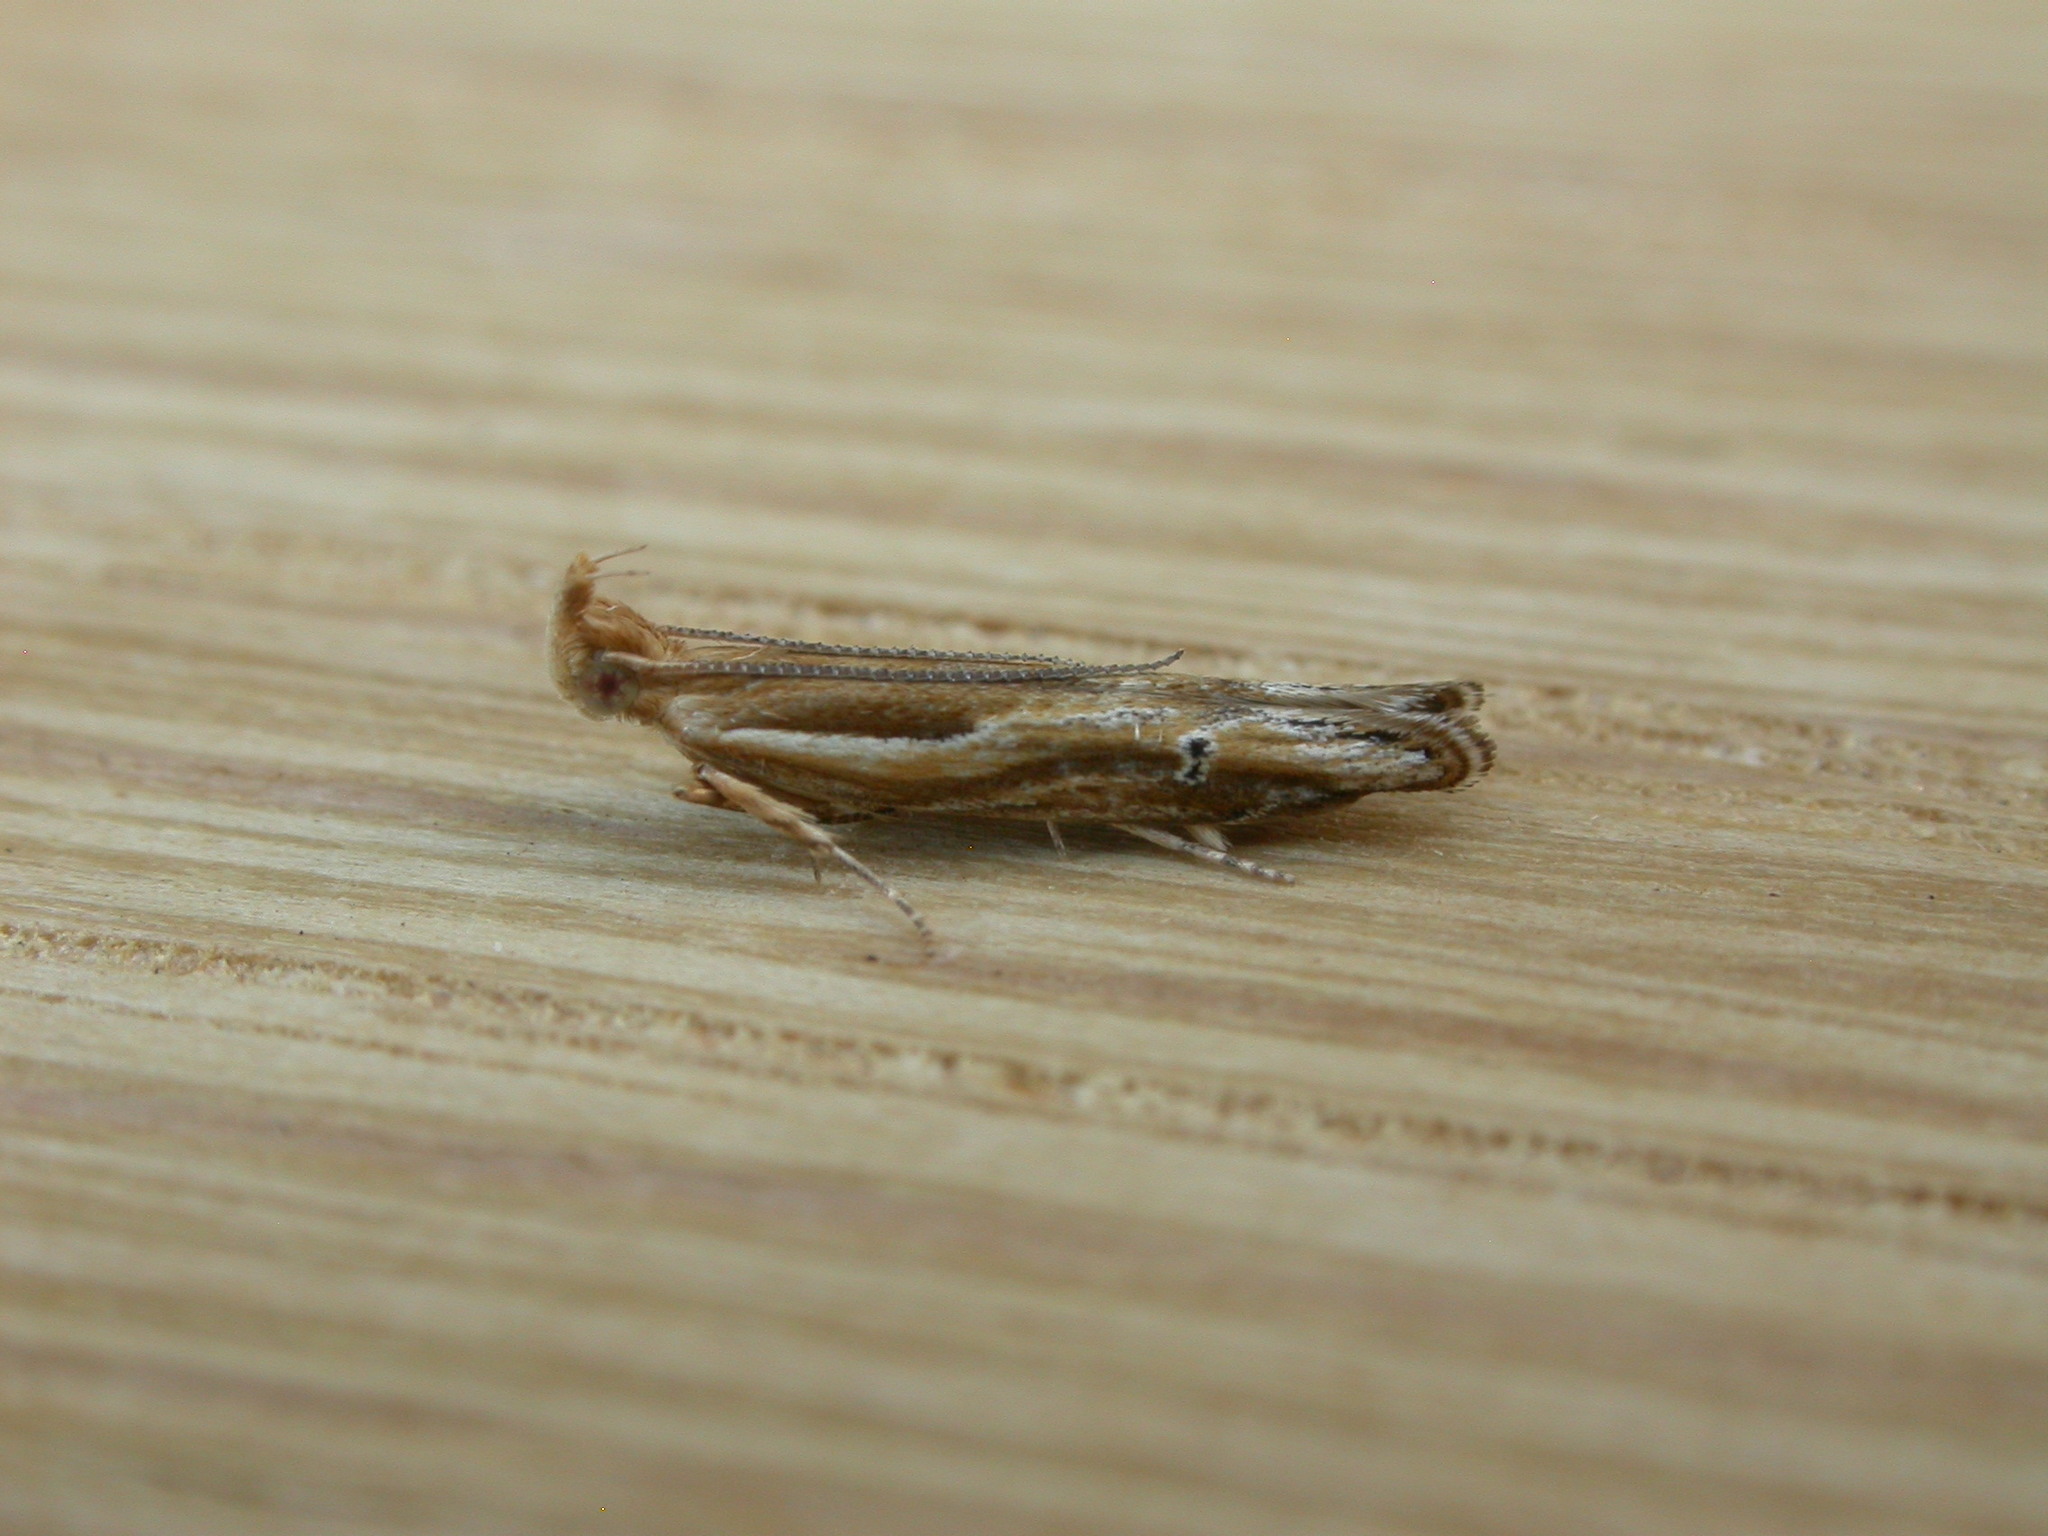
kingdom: Animalia
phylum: Arthropoda
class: Insecta
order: Lepidoptera
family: Depressariidae
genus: Eutorna
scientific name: Eutorna tricasis
